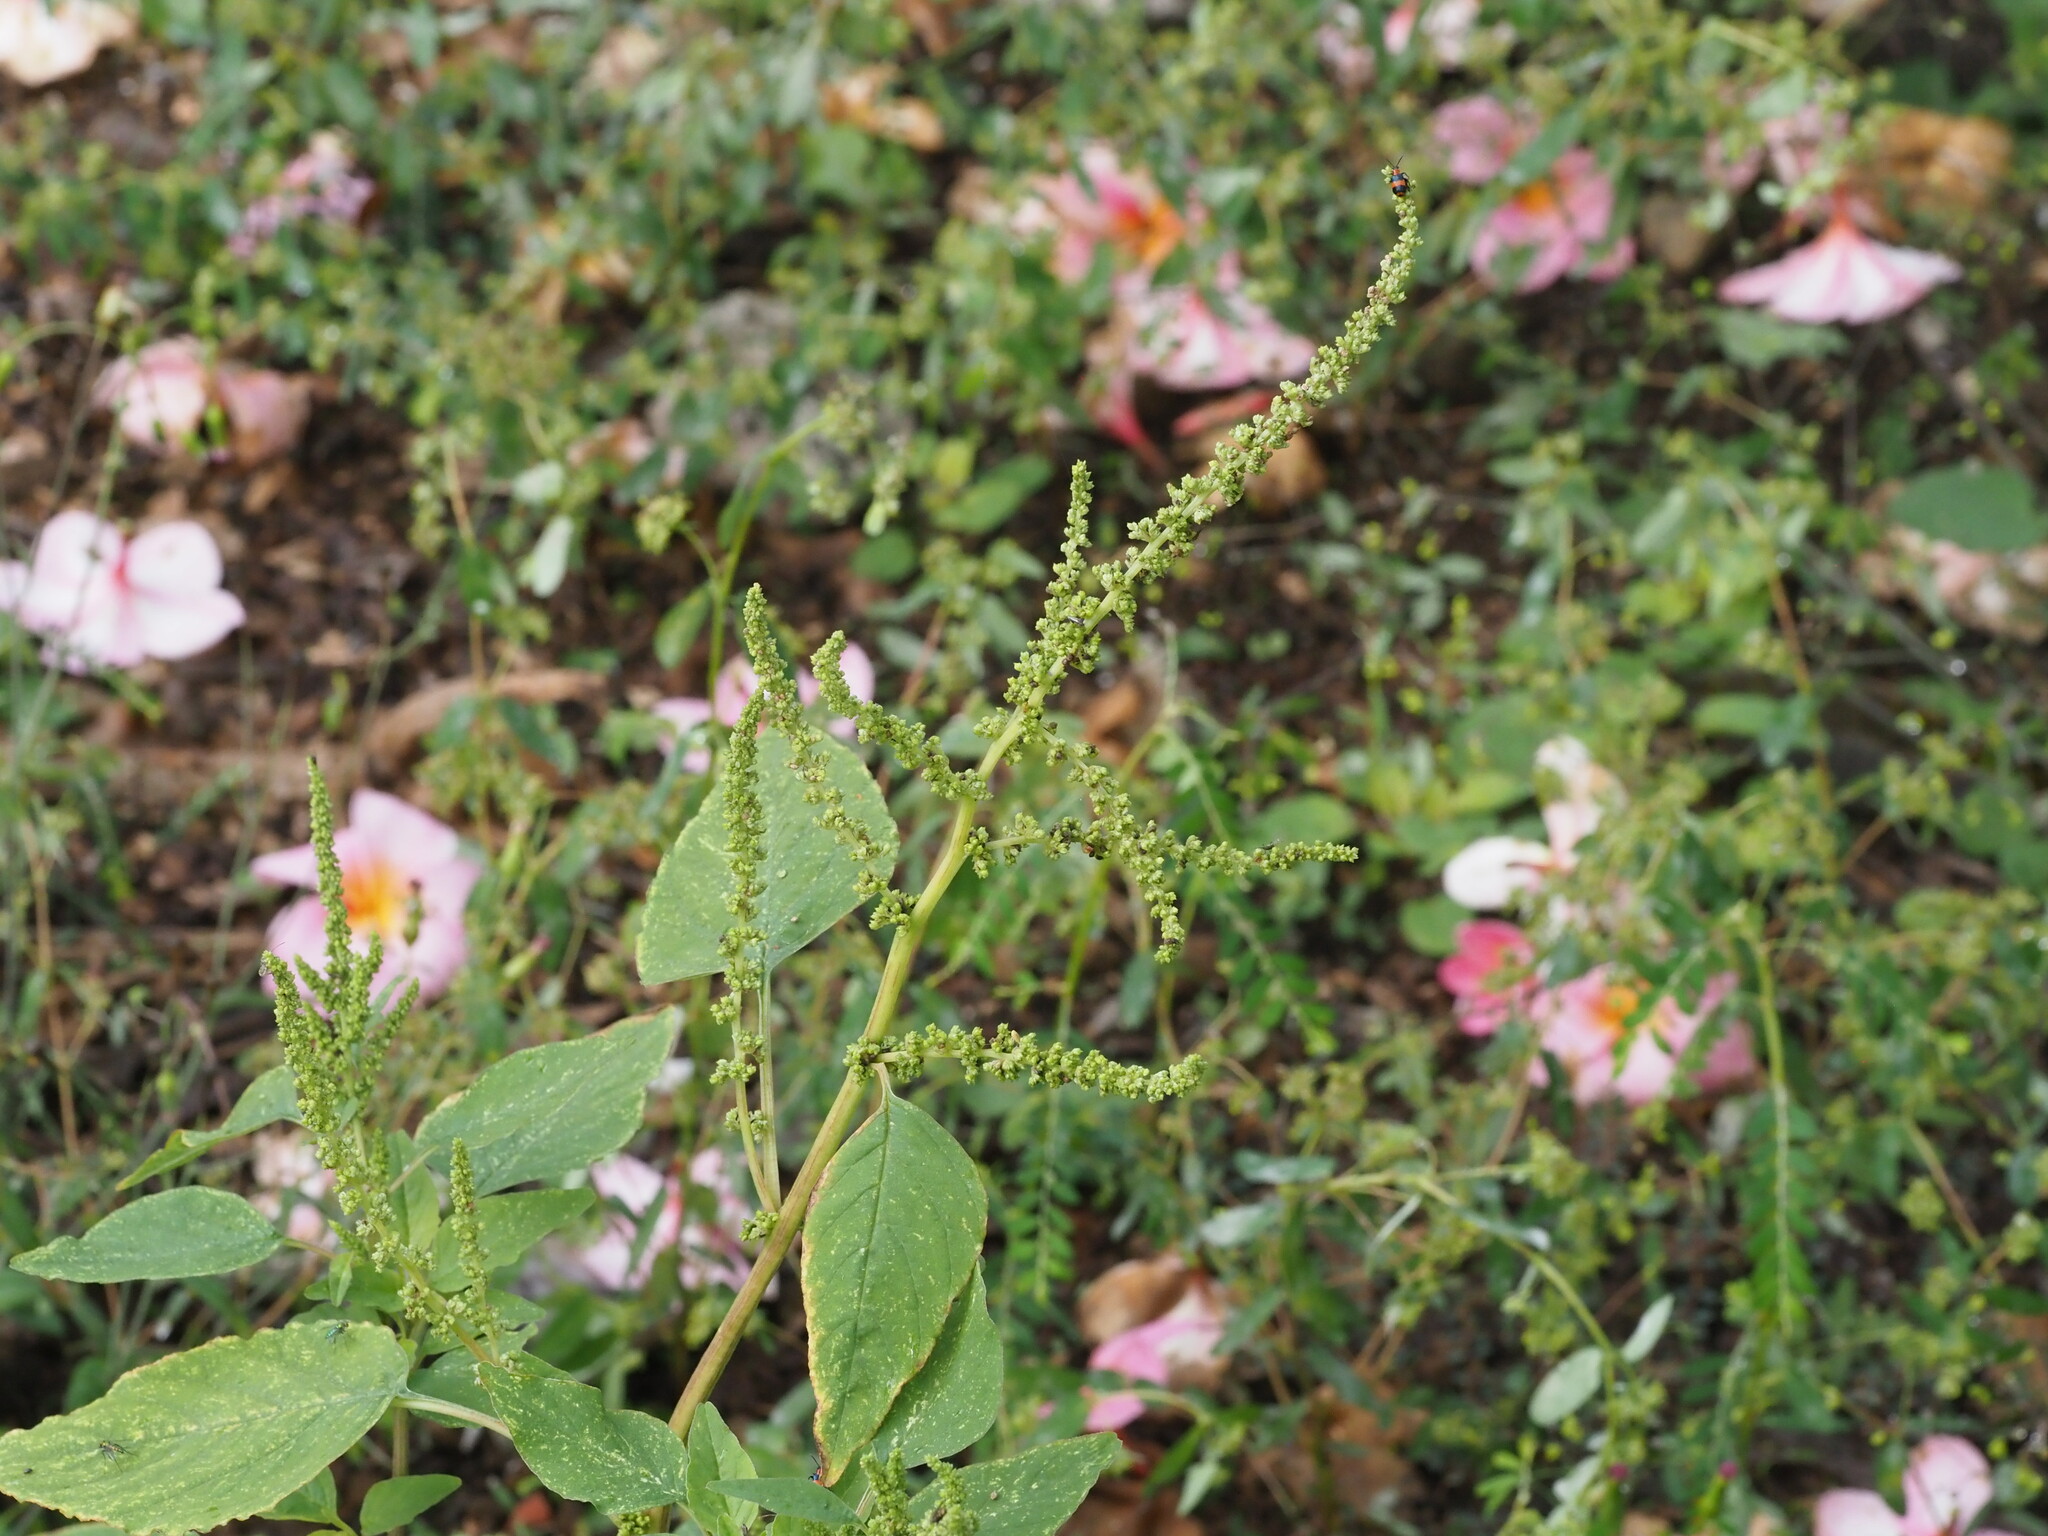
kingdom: Plantae
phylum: Tracheophyta
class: Magnoliopsida
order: Caryophyllales
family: Amaranthaceae
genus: Amaranthus
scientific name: Amaranthus viridis
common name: Slender amaranth
